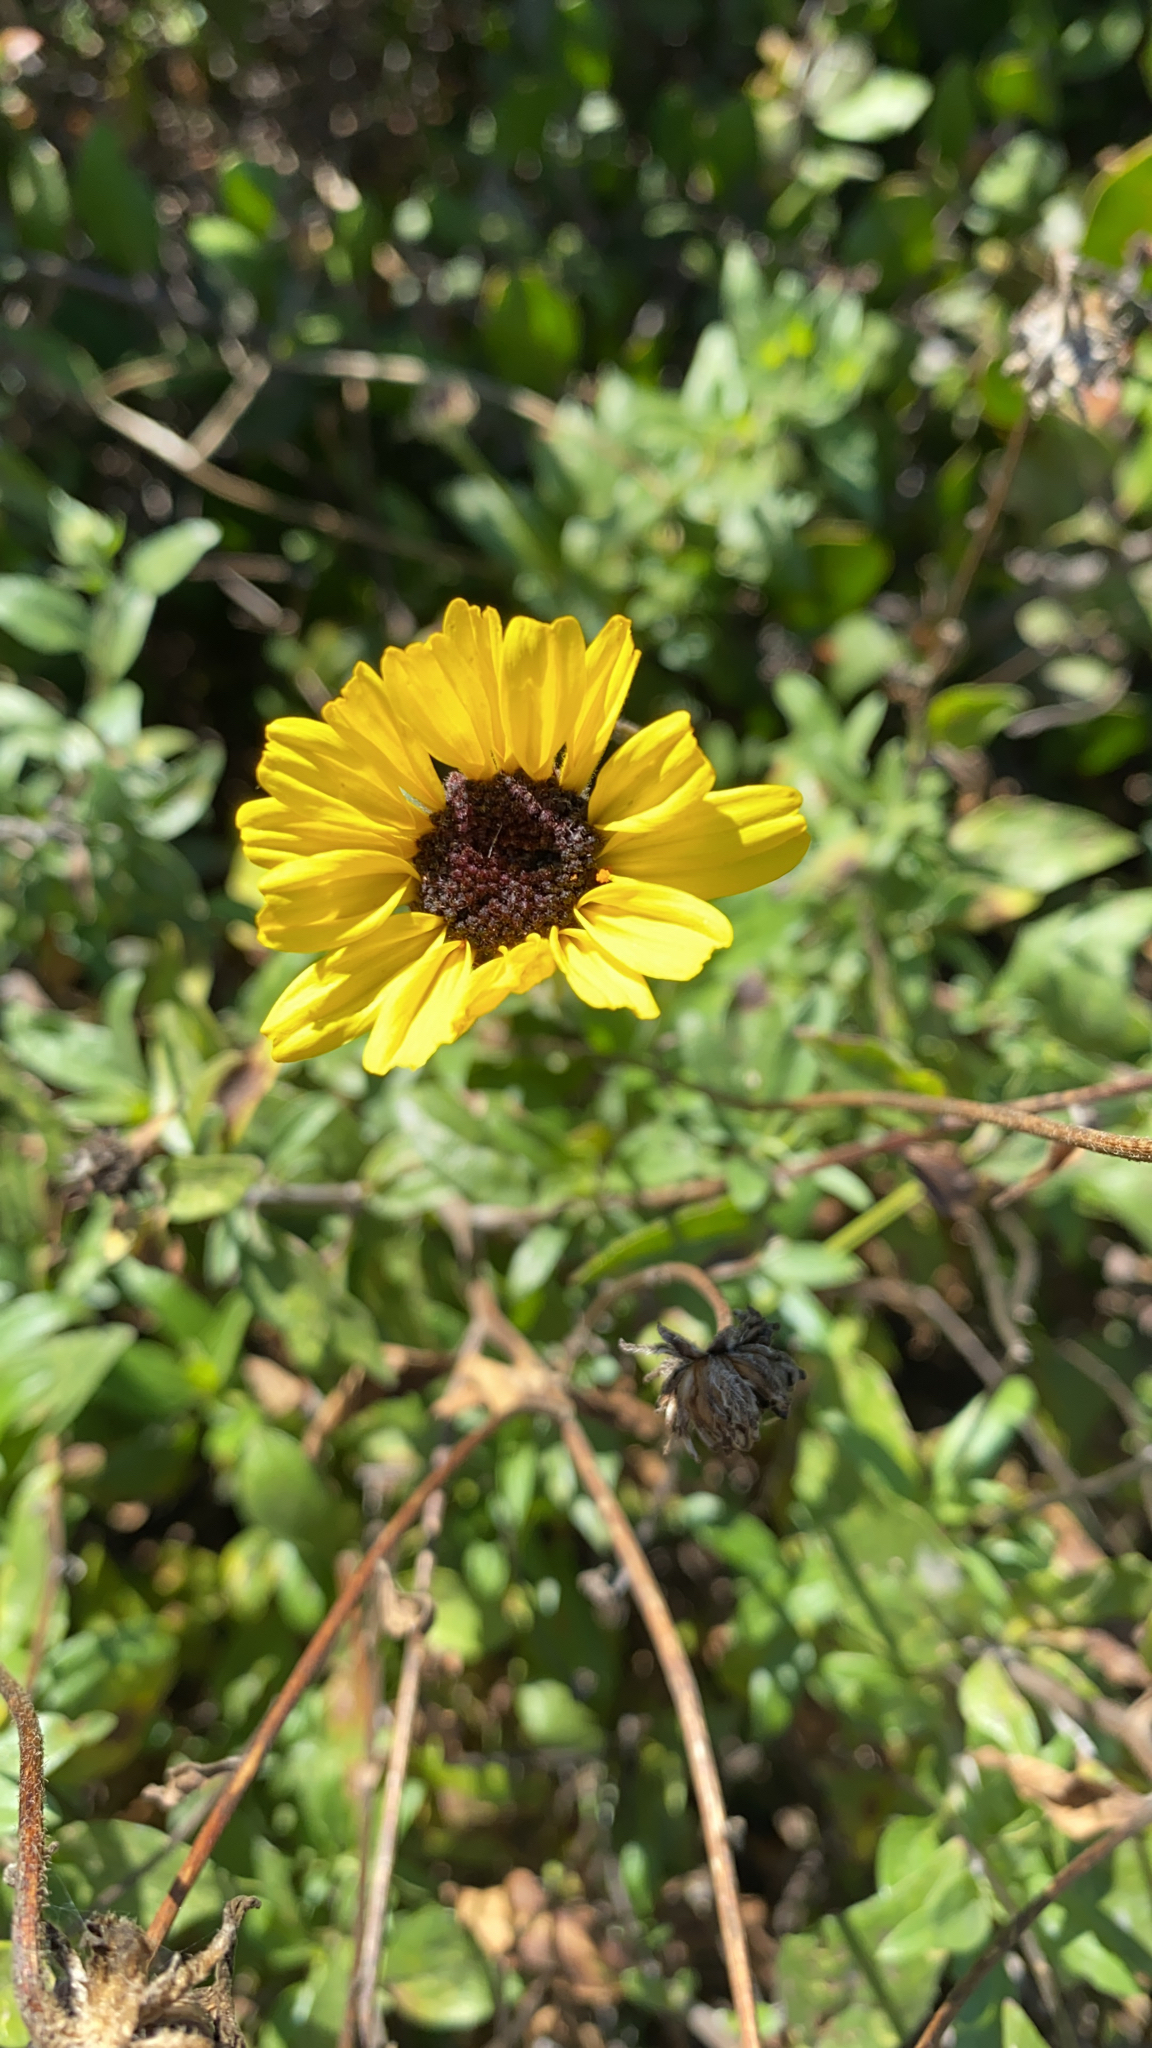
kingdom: Plantae
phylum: Tracheophyta
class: Magnoliopsida
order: Asterales
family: Asteraceae
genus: Encelia
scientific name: Encelia californica
